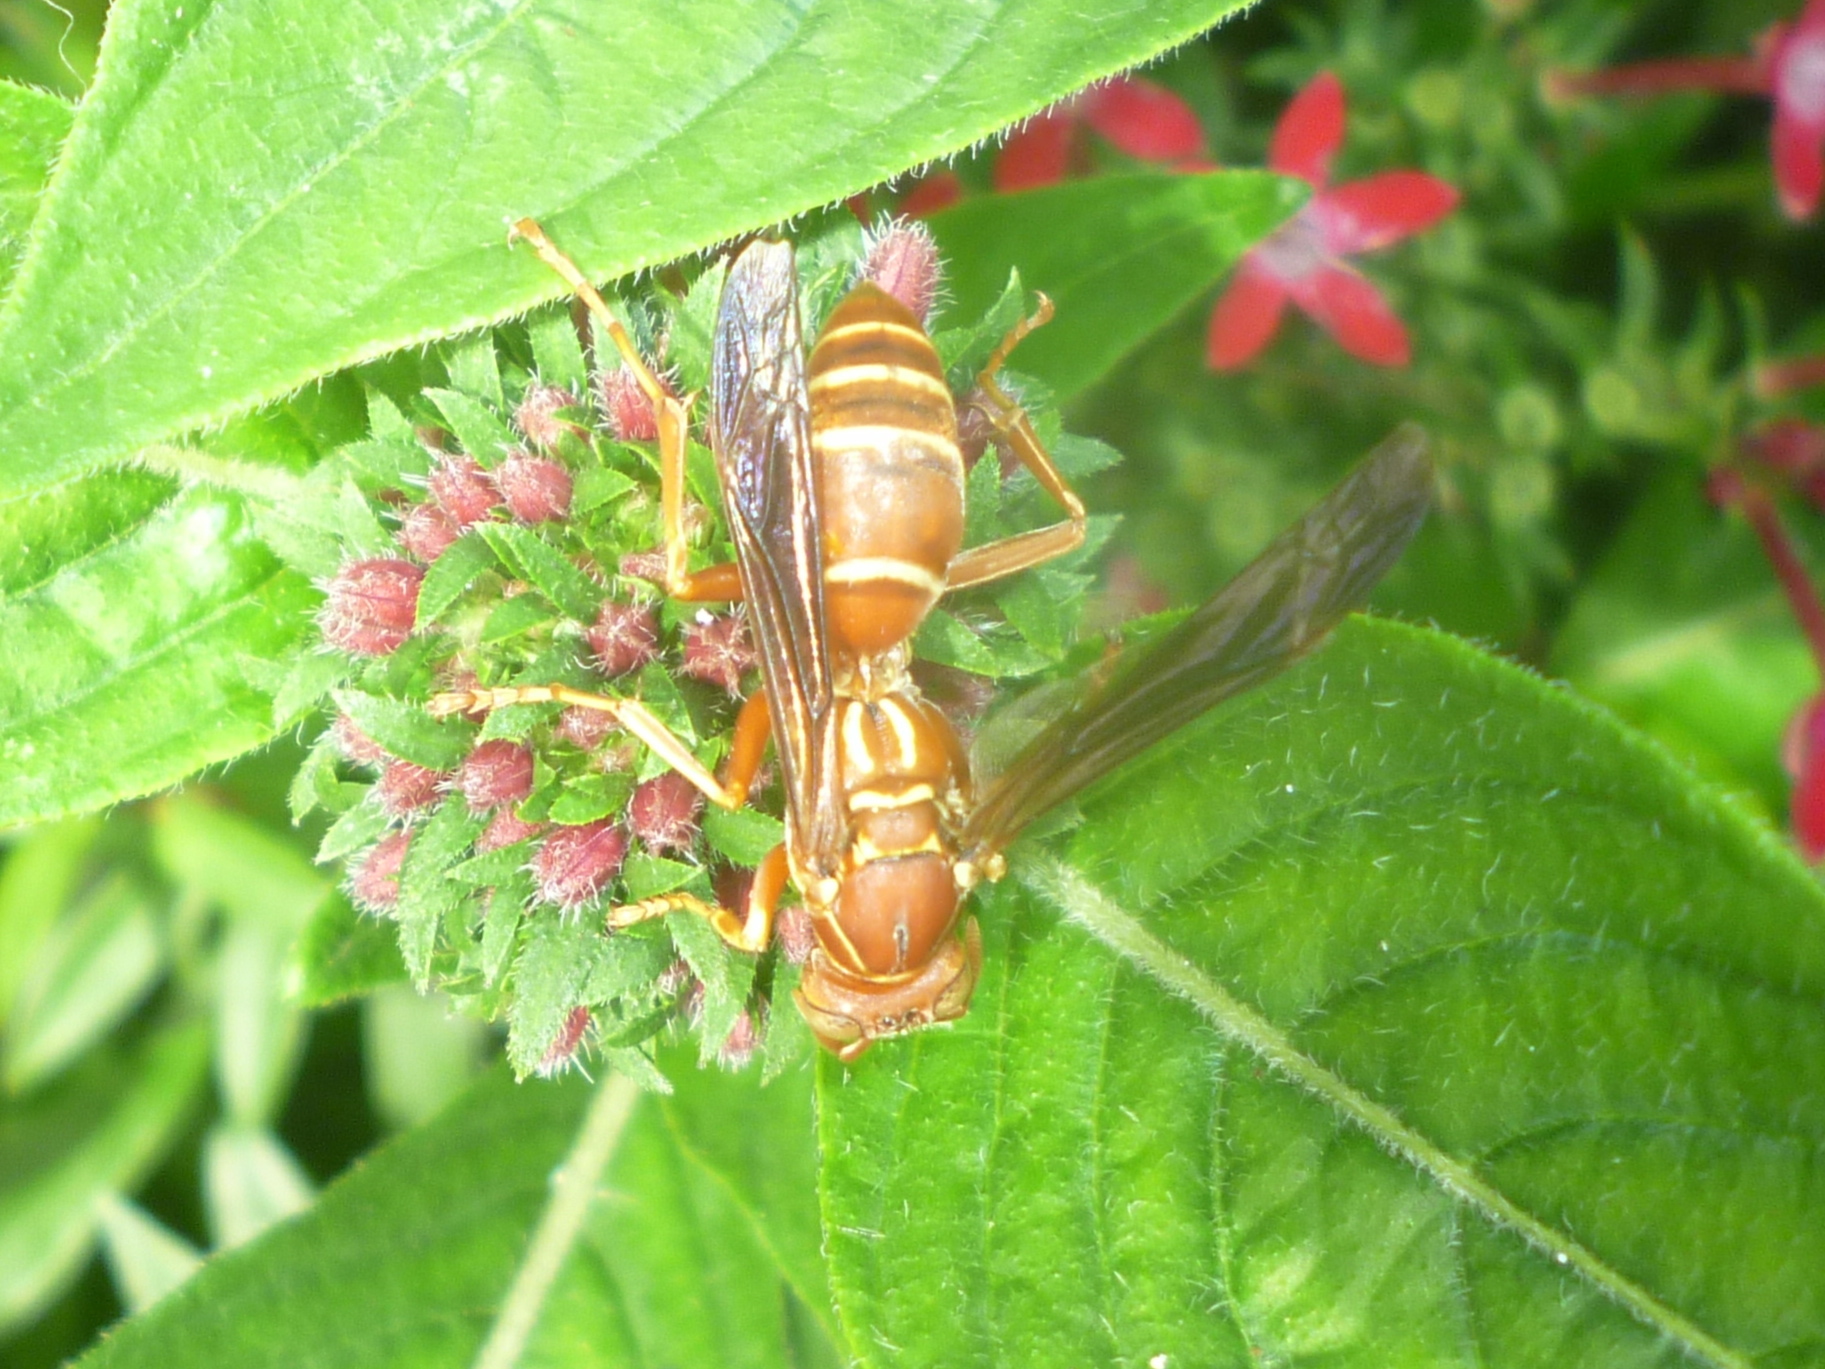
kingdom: Animalia
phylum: Arthropoda
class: Insecta
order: Hymenoptera
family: Eumenidae
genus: Polistes
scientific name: Polistes bellicosus
